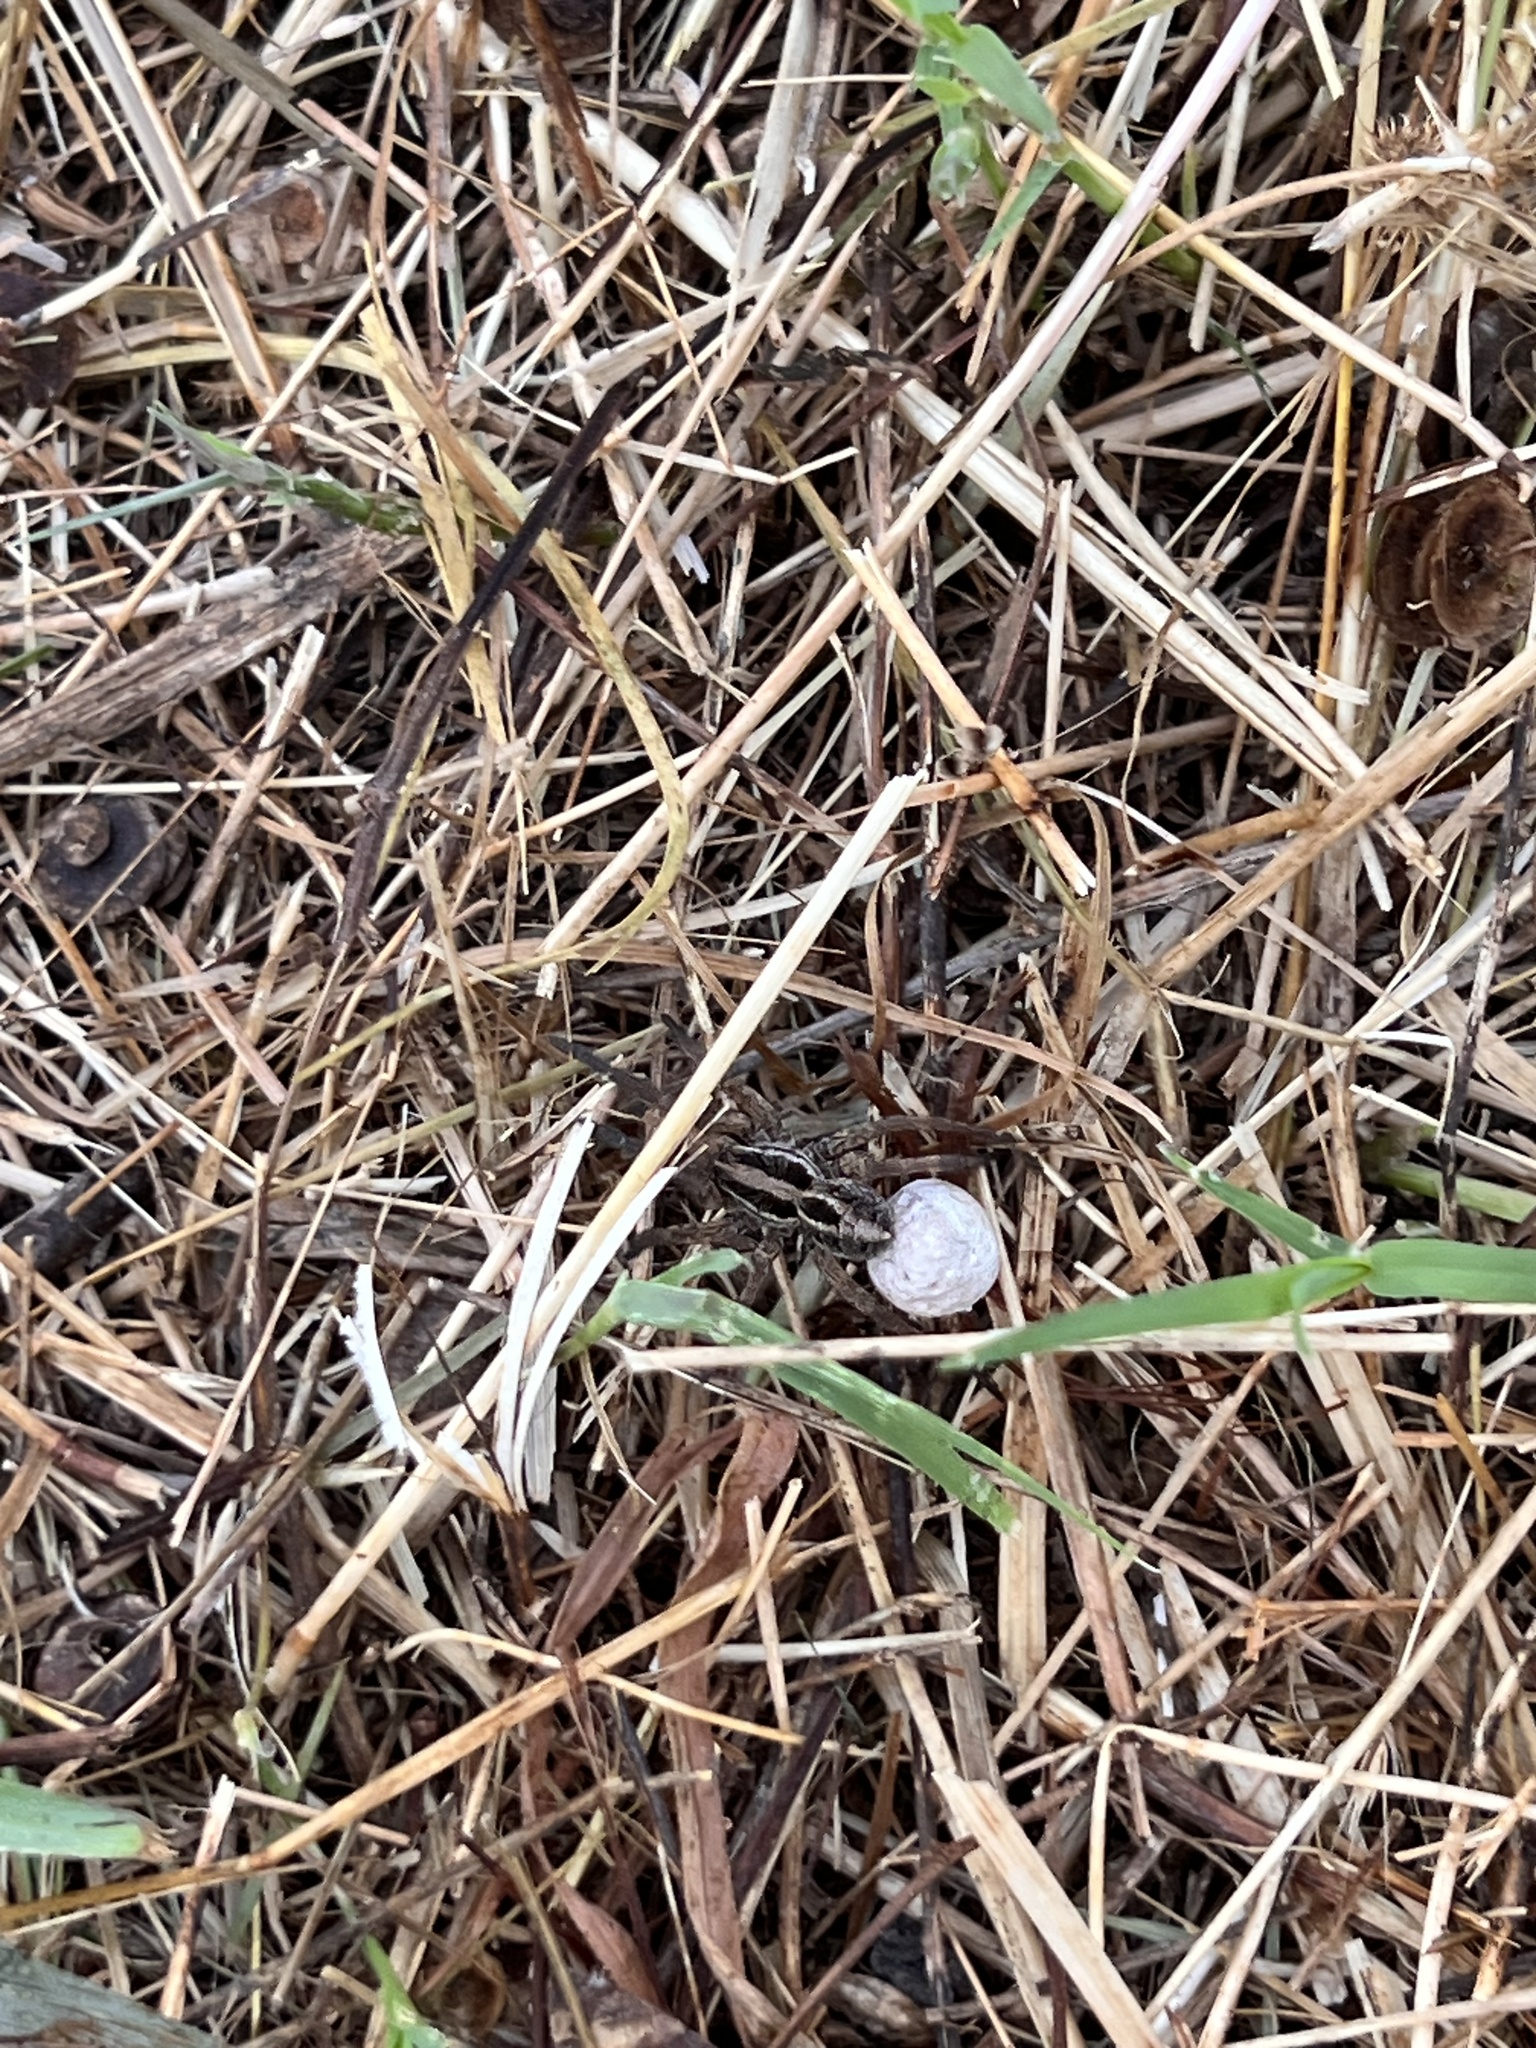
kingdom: Animalia
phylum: Arthropoda
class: Arachnida
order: Araneae
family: Lycosidae
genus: Schizocosa
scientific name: Schizocosa avida
